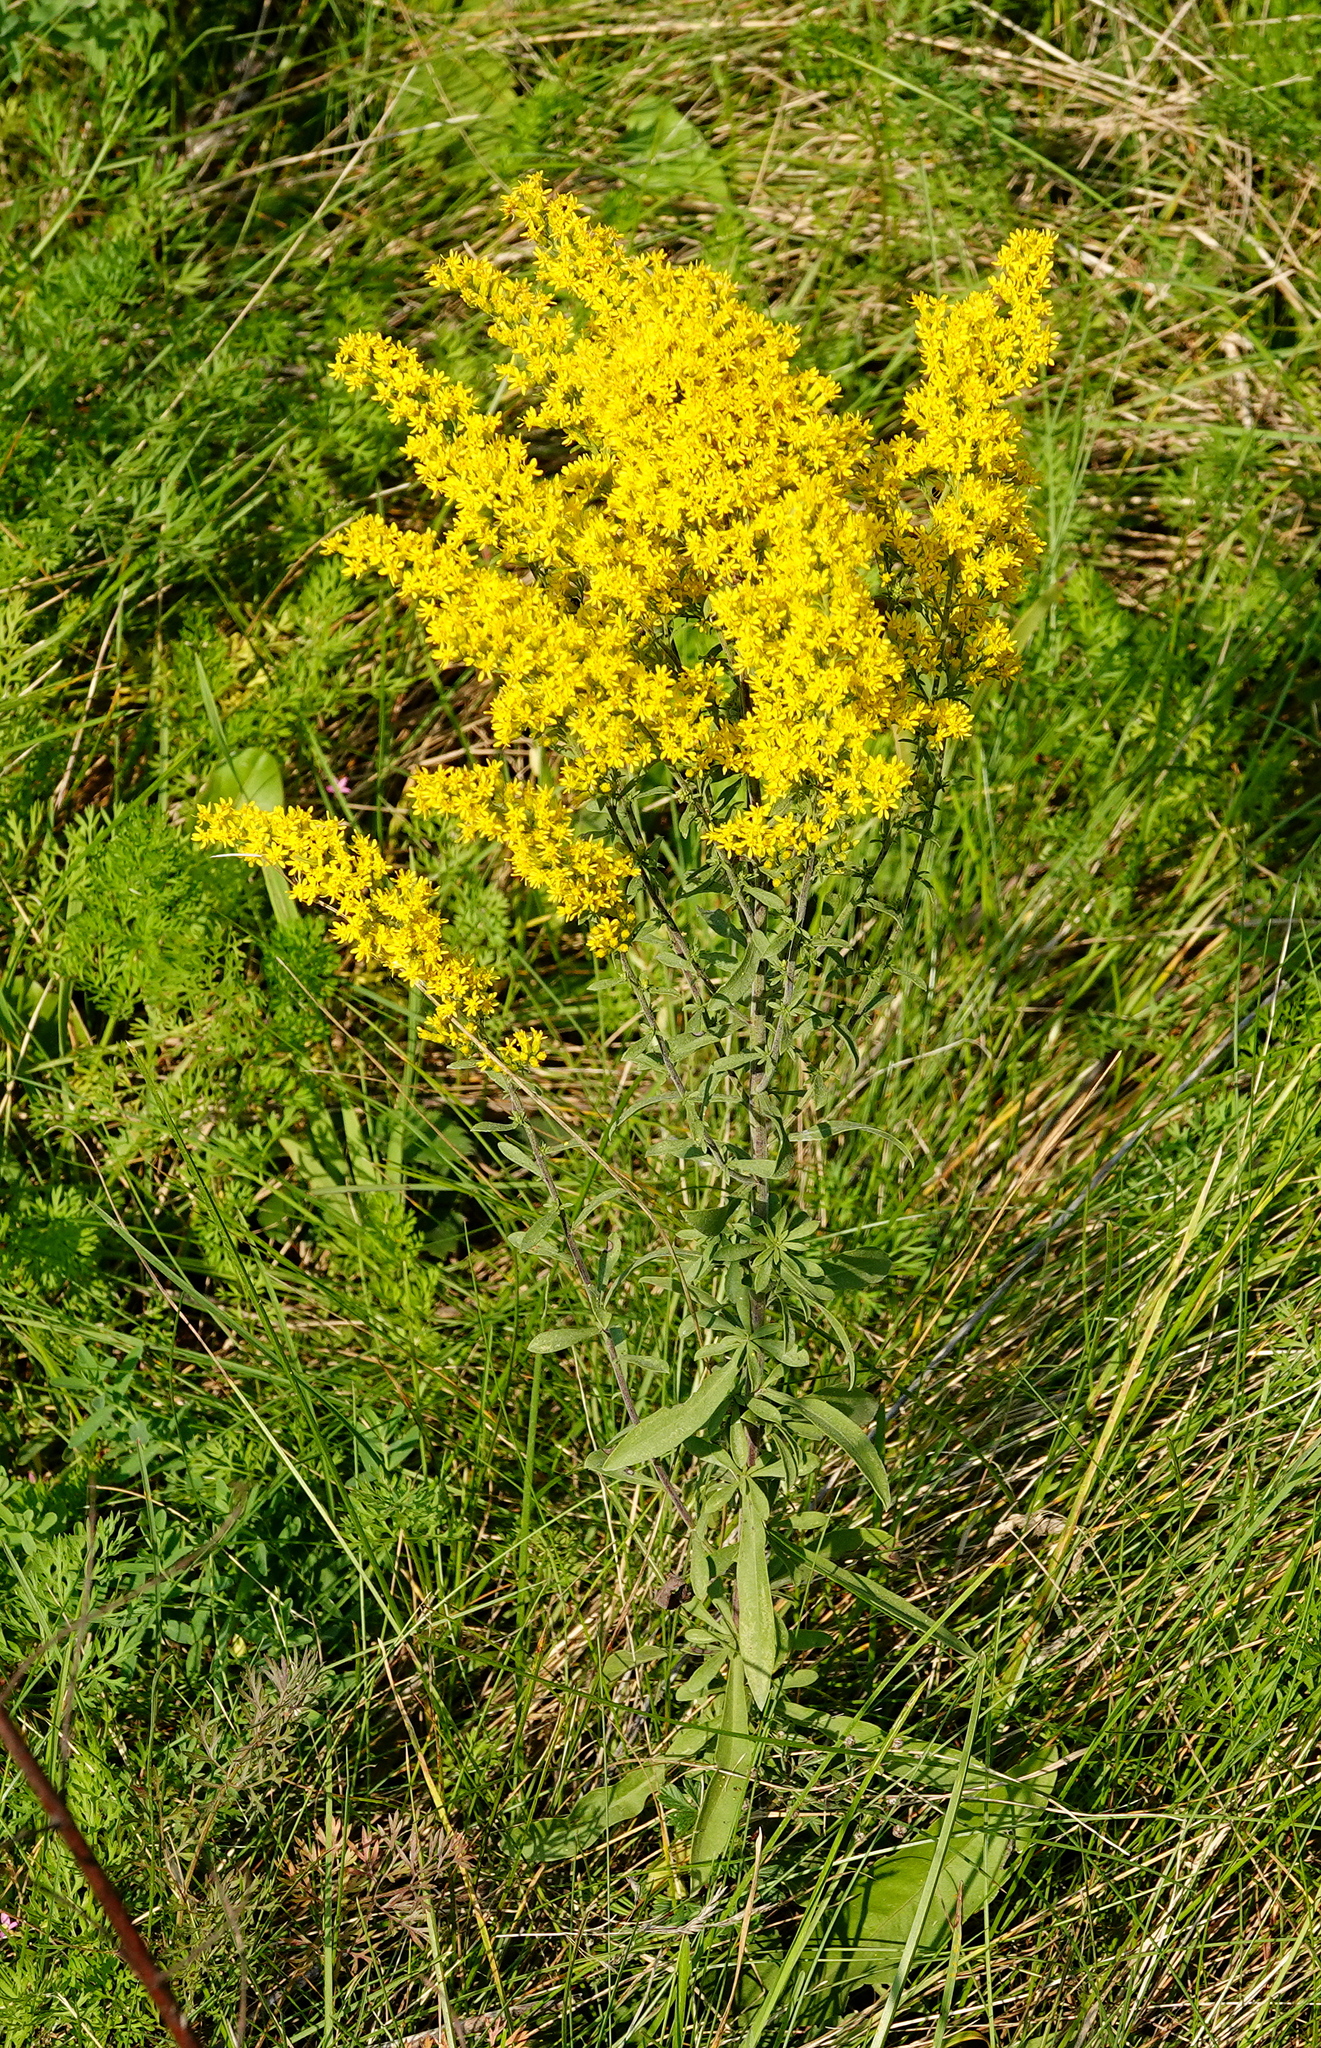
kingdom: Plantae
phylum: Tracheophyta
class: Magnoliopsida
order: Asterales
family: Asteraceae
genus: Solidago
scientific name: Solidago nemoralis
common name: Grey goldenrod
